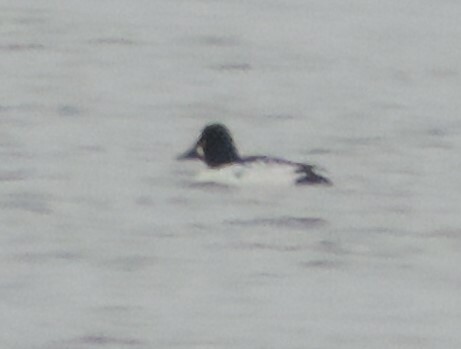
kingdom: Animalia
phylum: Chordata
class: Aves
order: Anseriformes
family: Anatidae
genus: Bucephala
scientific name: Bucephala clangula
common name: Common goldeneye
